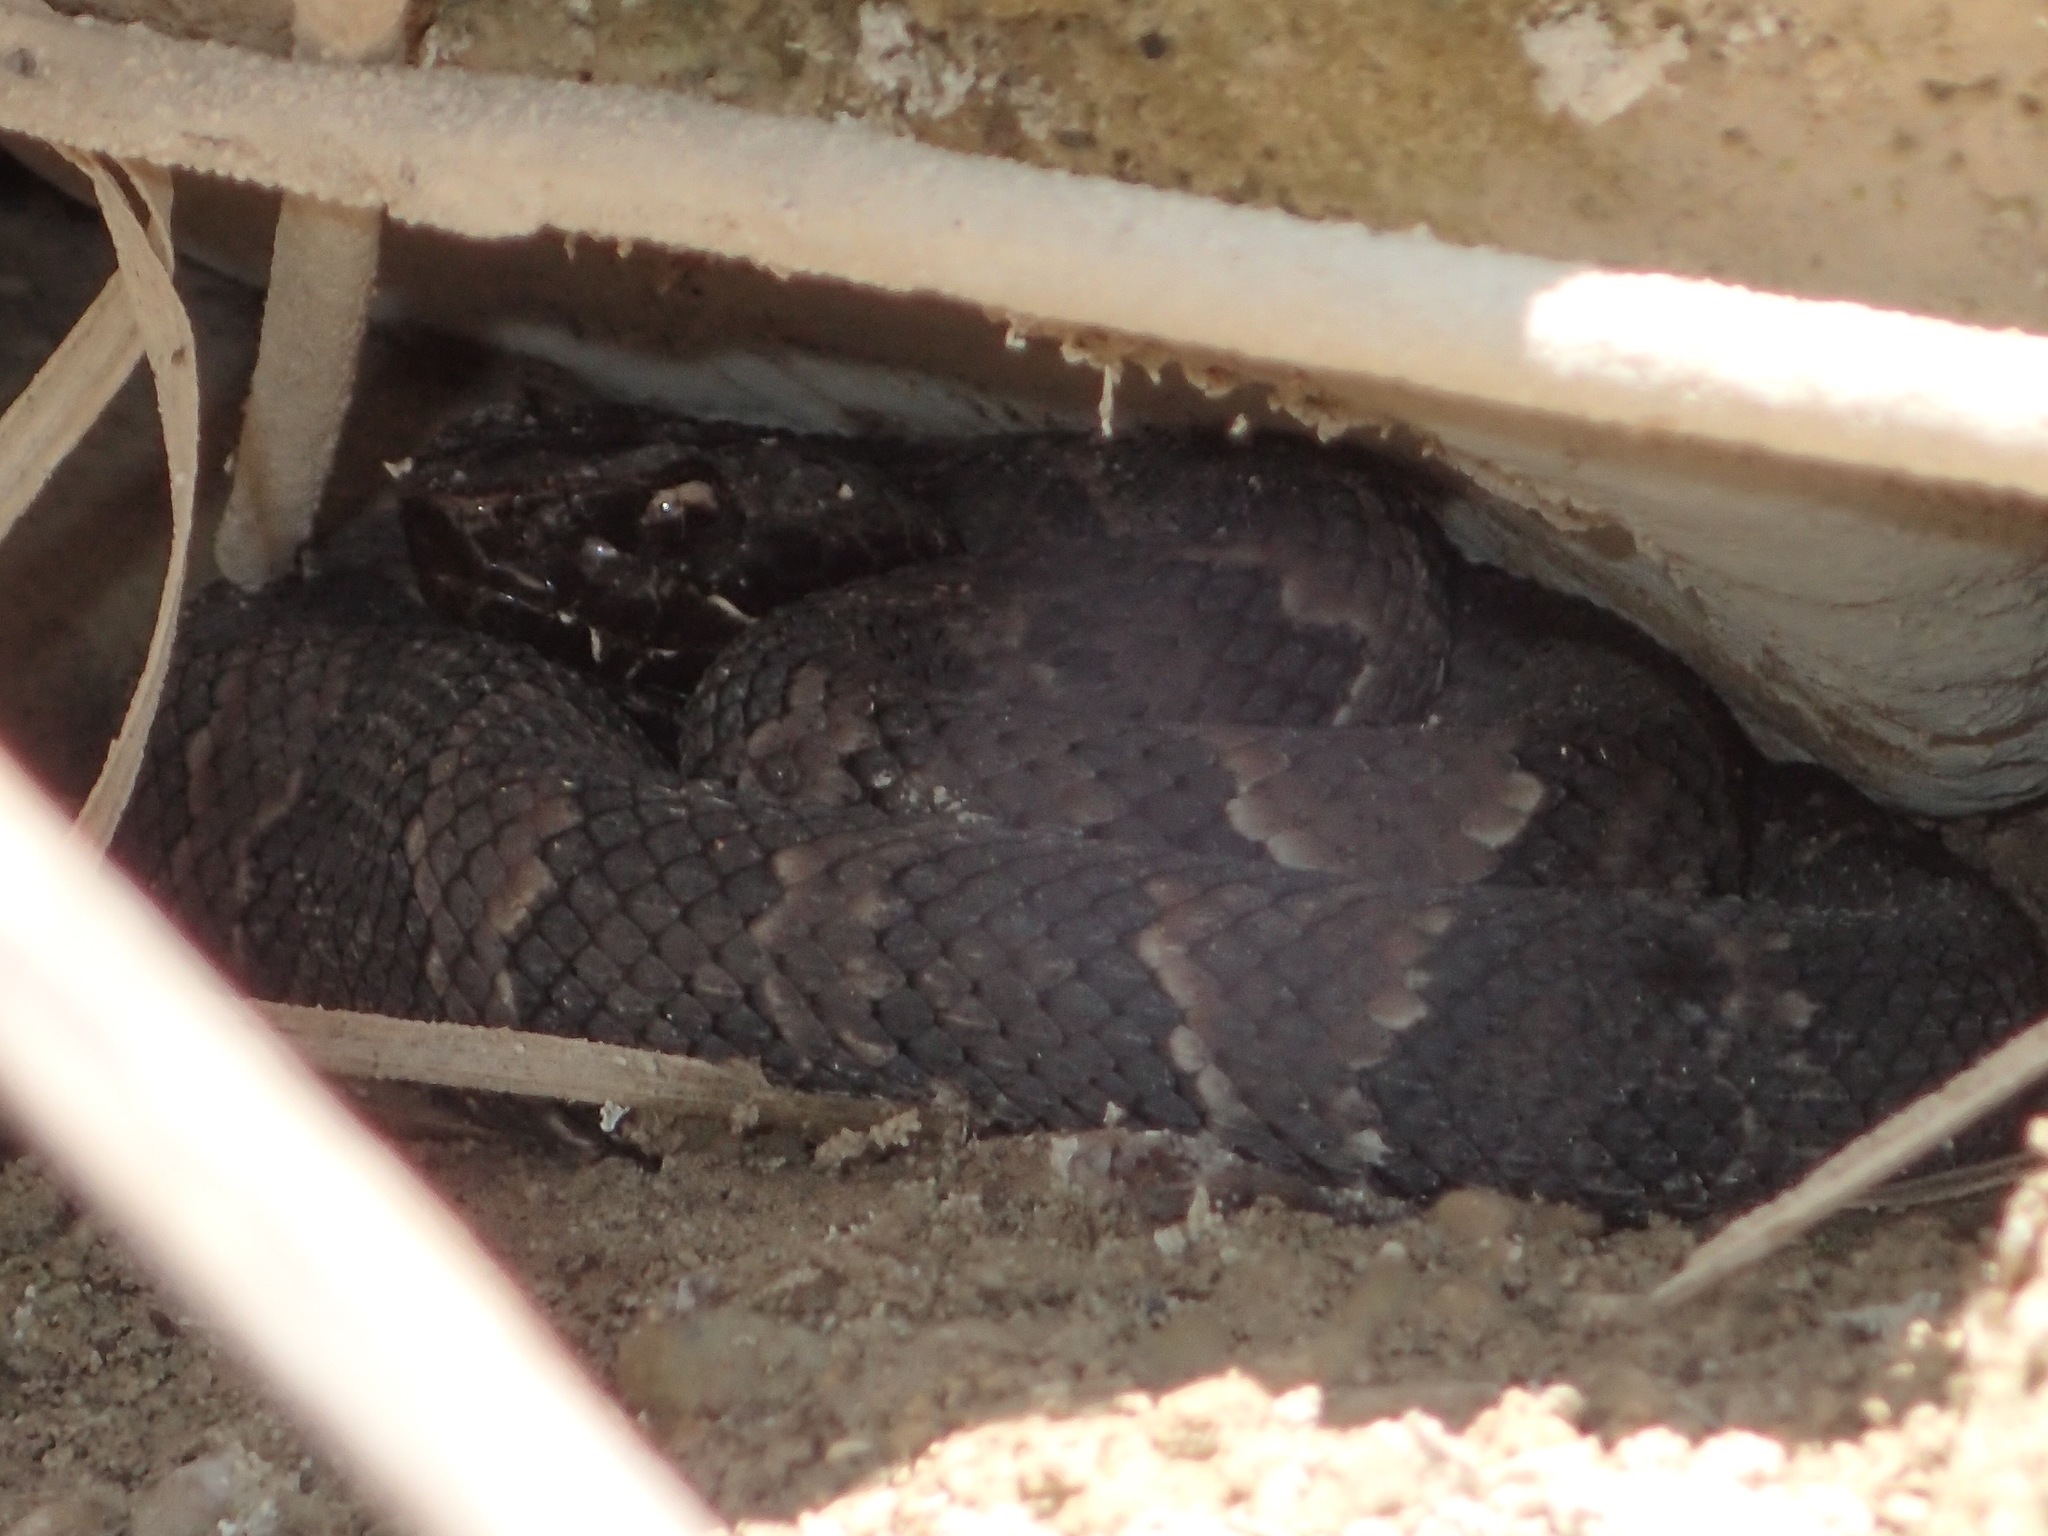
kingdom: Animalia
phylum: Chordata
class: Squamata
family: Viperidae
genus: Agkistrodon
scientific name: Agkistrodon piscivorus
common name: Cottonmouth
